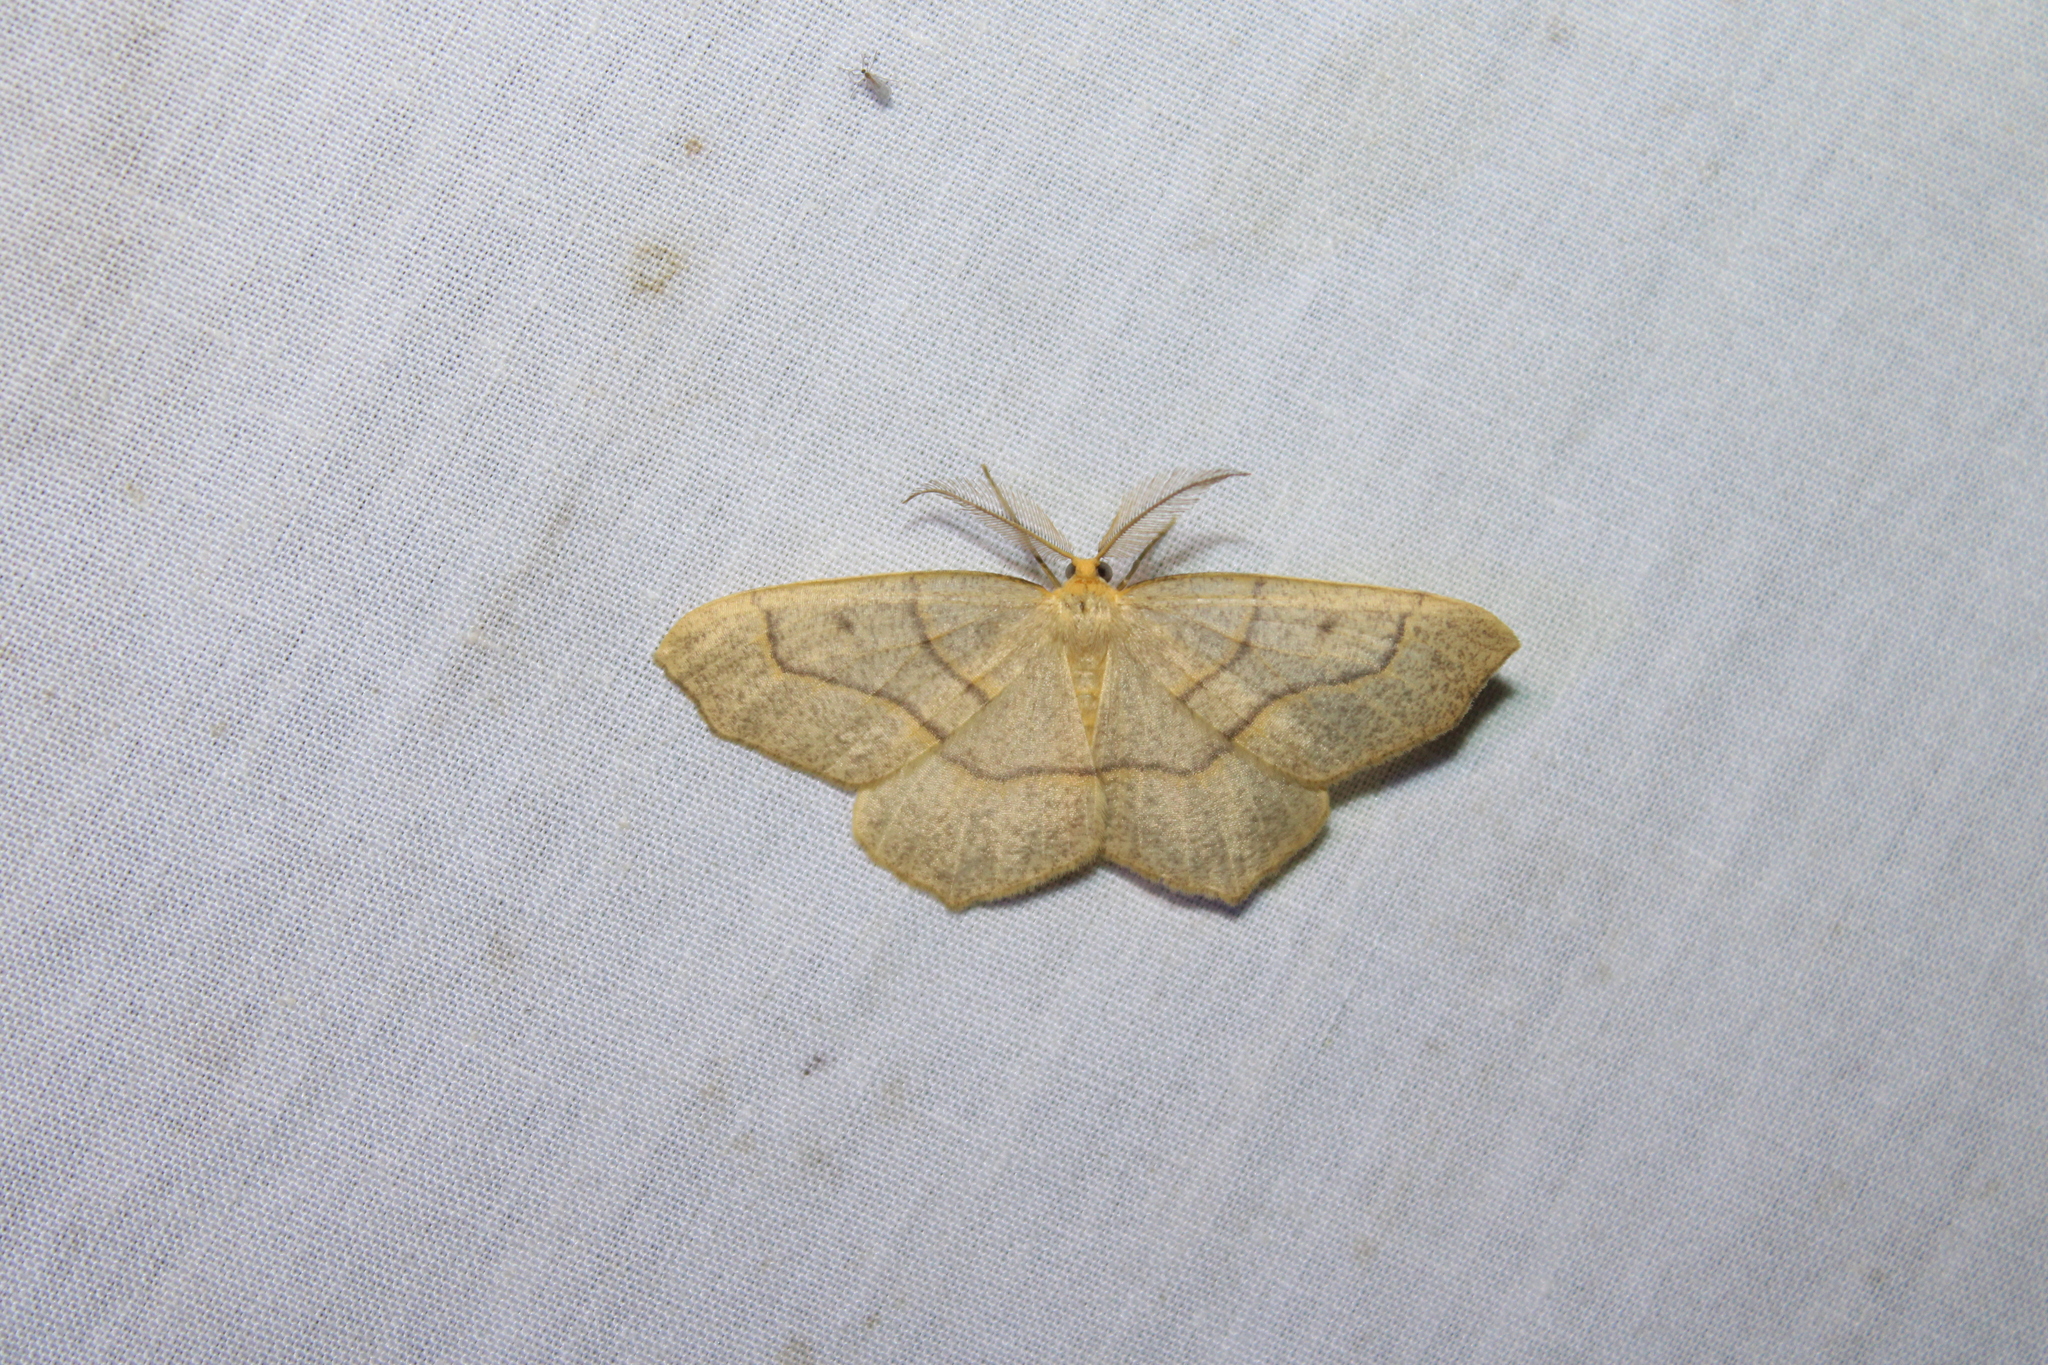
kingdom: Animalia
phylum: Arthropoda
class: Insecta
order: Lepidoptera
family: Geometridae
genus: Lambdina
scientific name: Lambdina fiscellaria
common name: Hemlock looper
